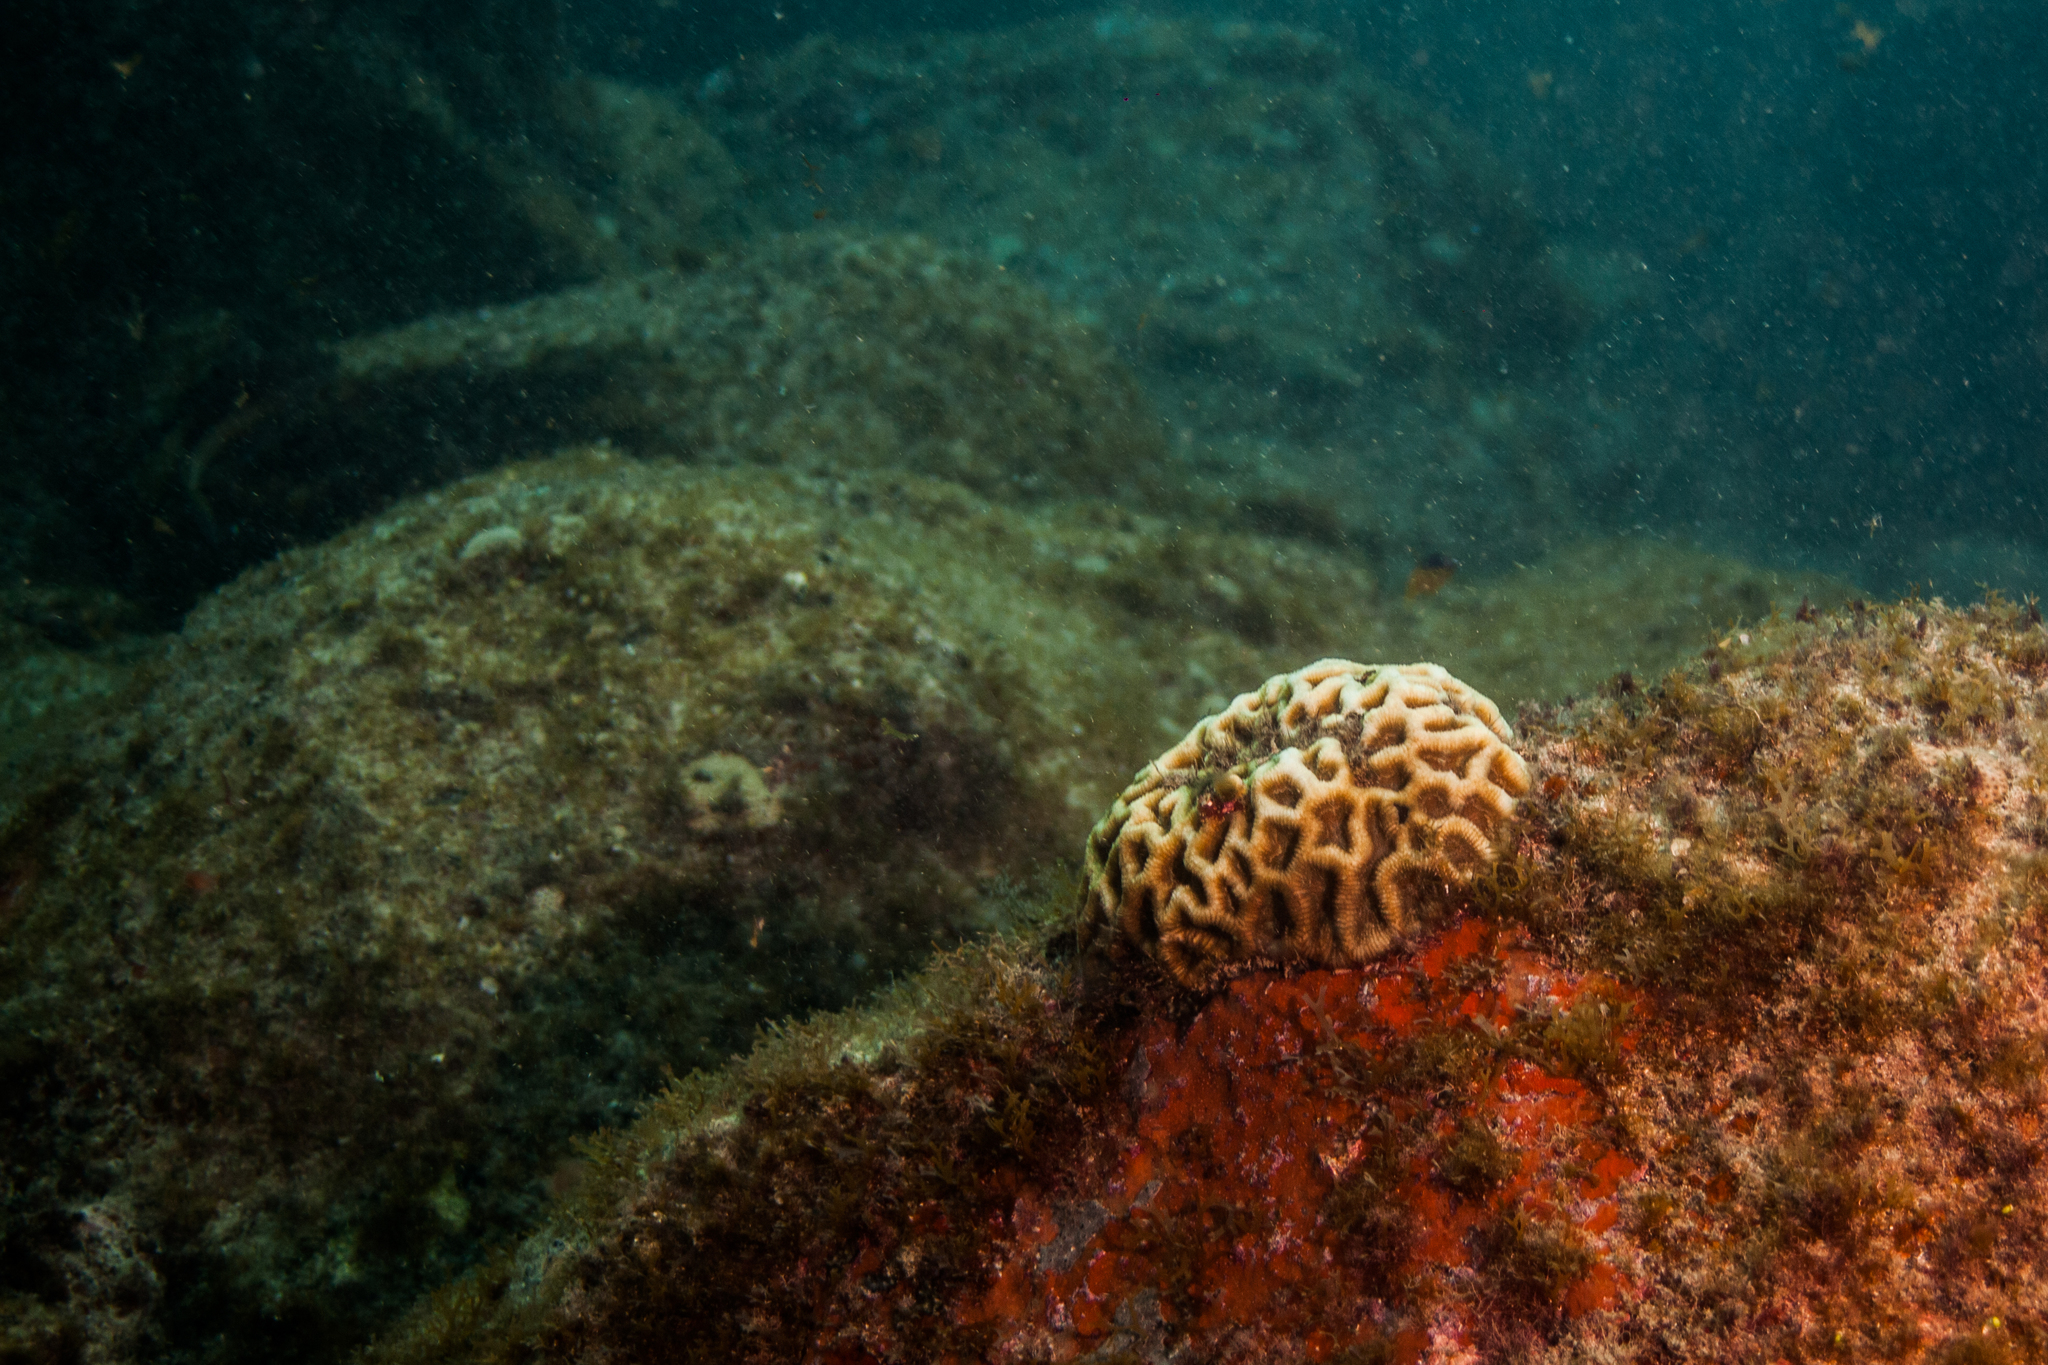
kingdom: Animalia
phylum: Cnidaria
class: Anthozoa
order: Scleractinia
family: Faviidae
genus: Mussismilia
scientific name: Mussismilia hispida
